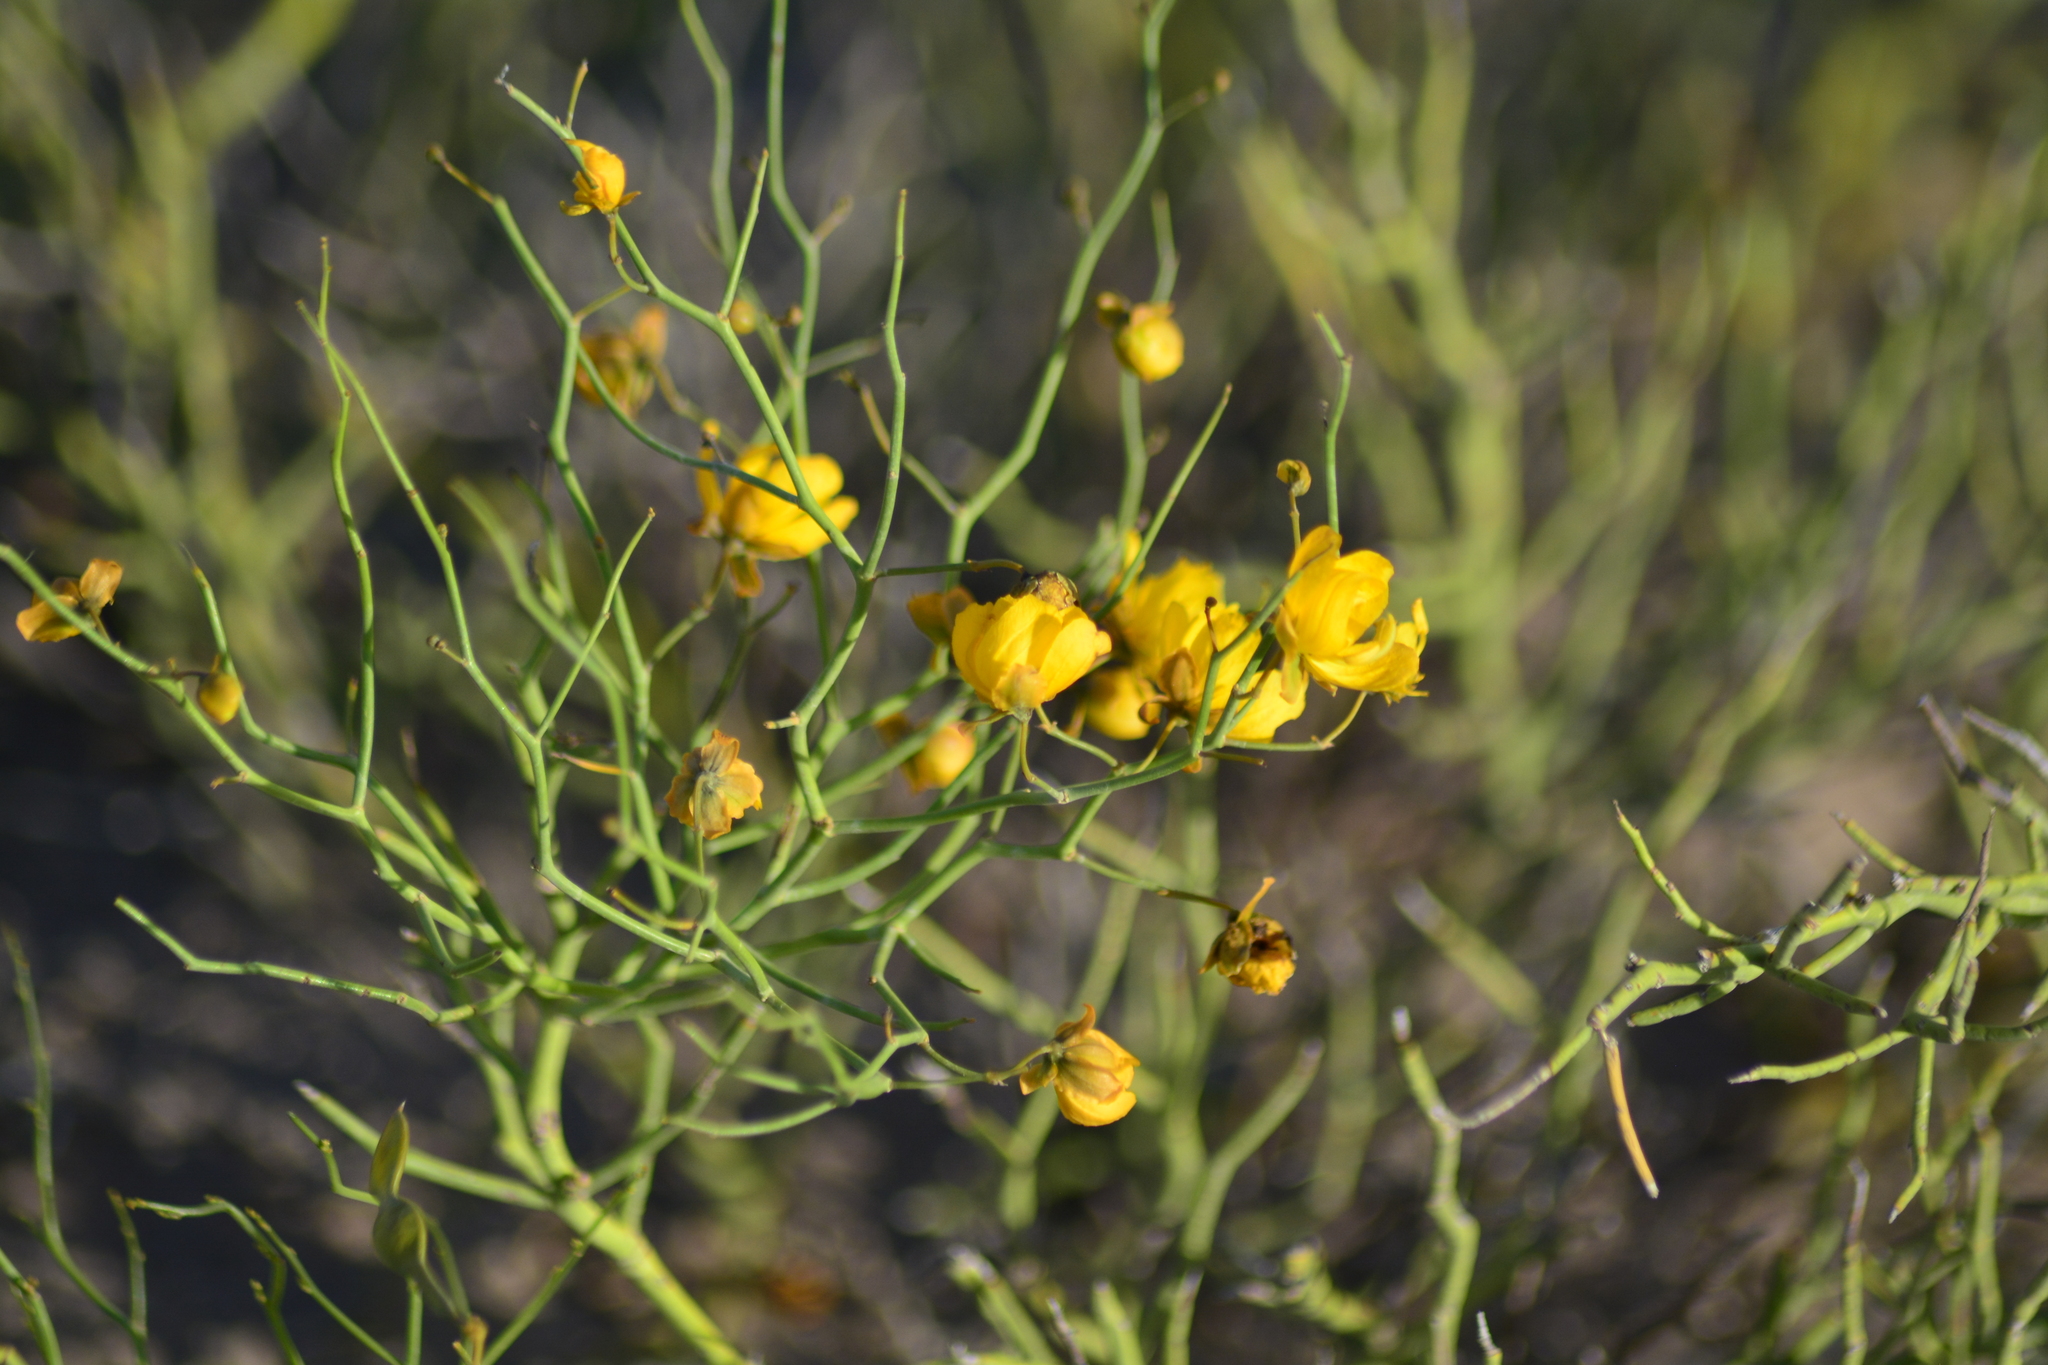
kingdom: Plantae
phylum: Tracheophyta
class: Magnoliopsida
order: Fabales
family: Fabaceae
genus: Senna
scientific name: Senna pachyrrhiza
